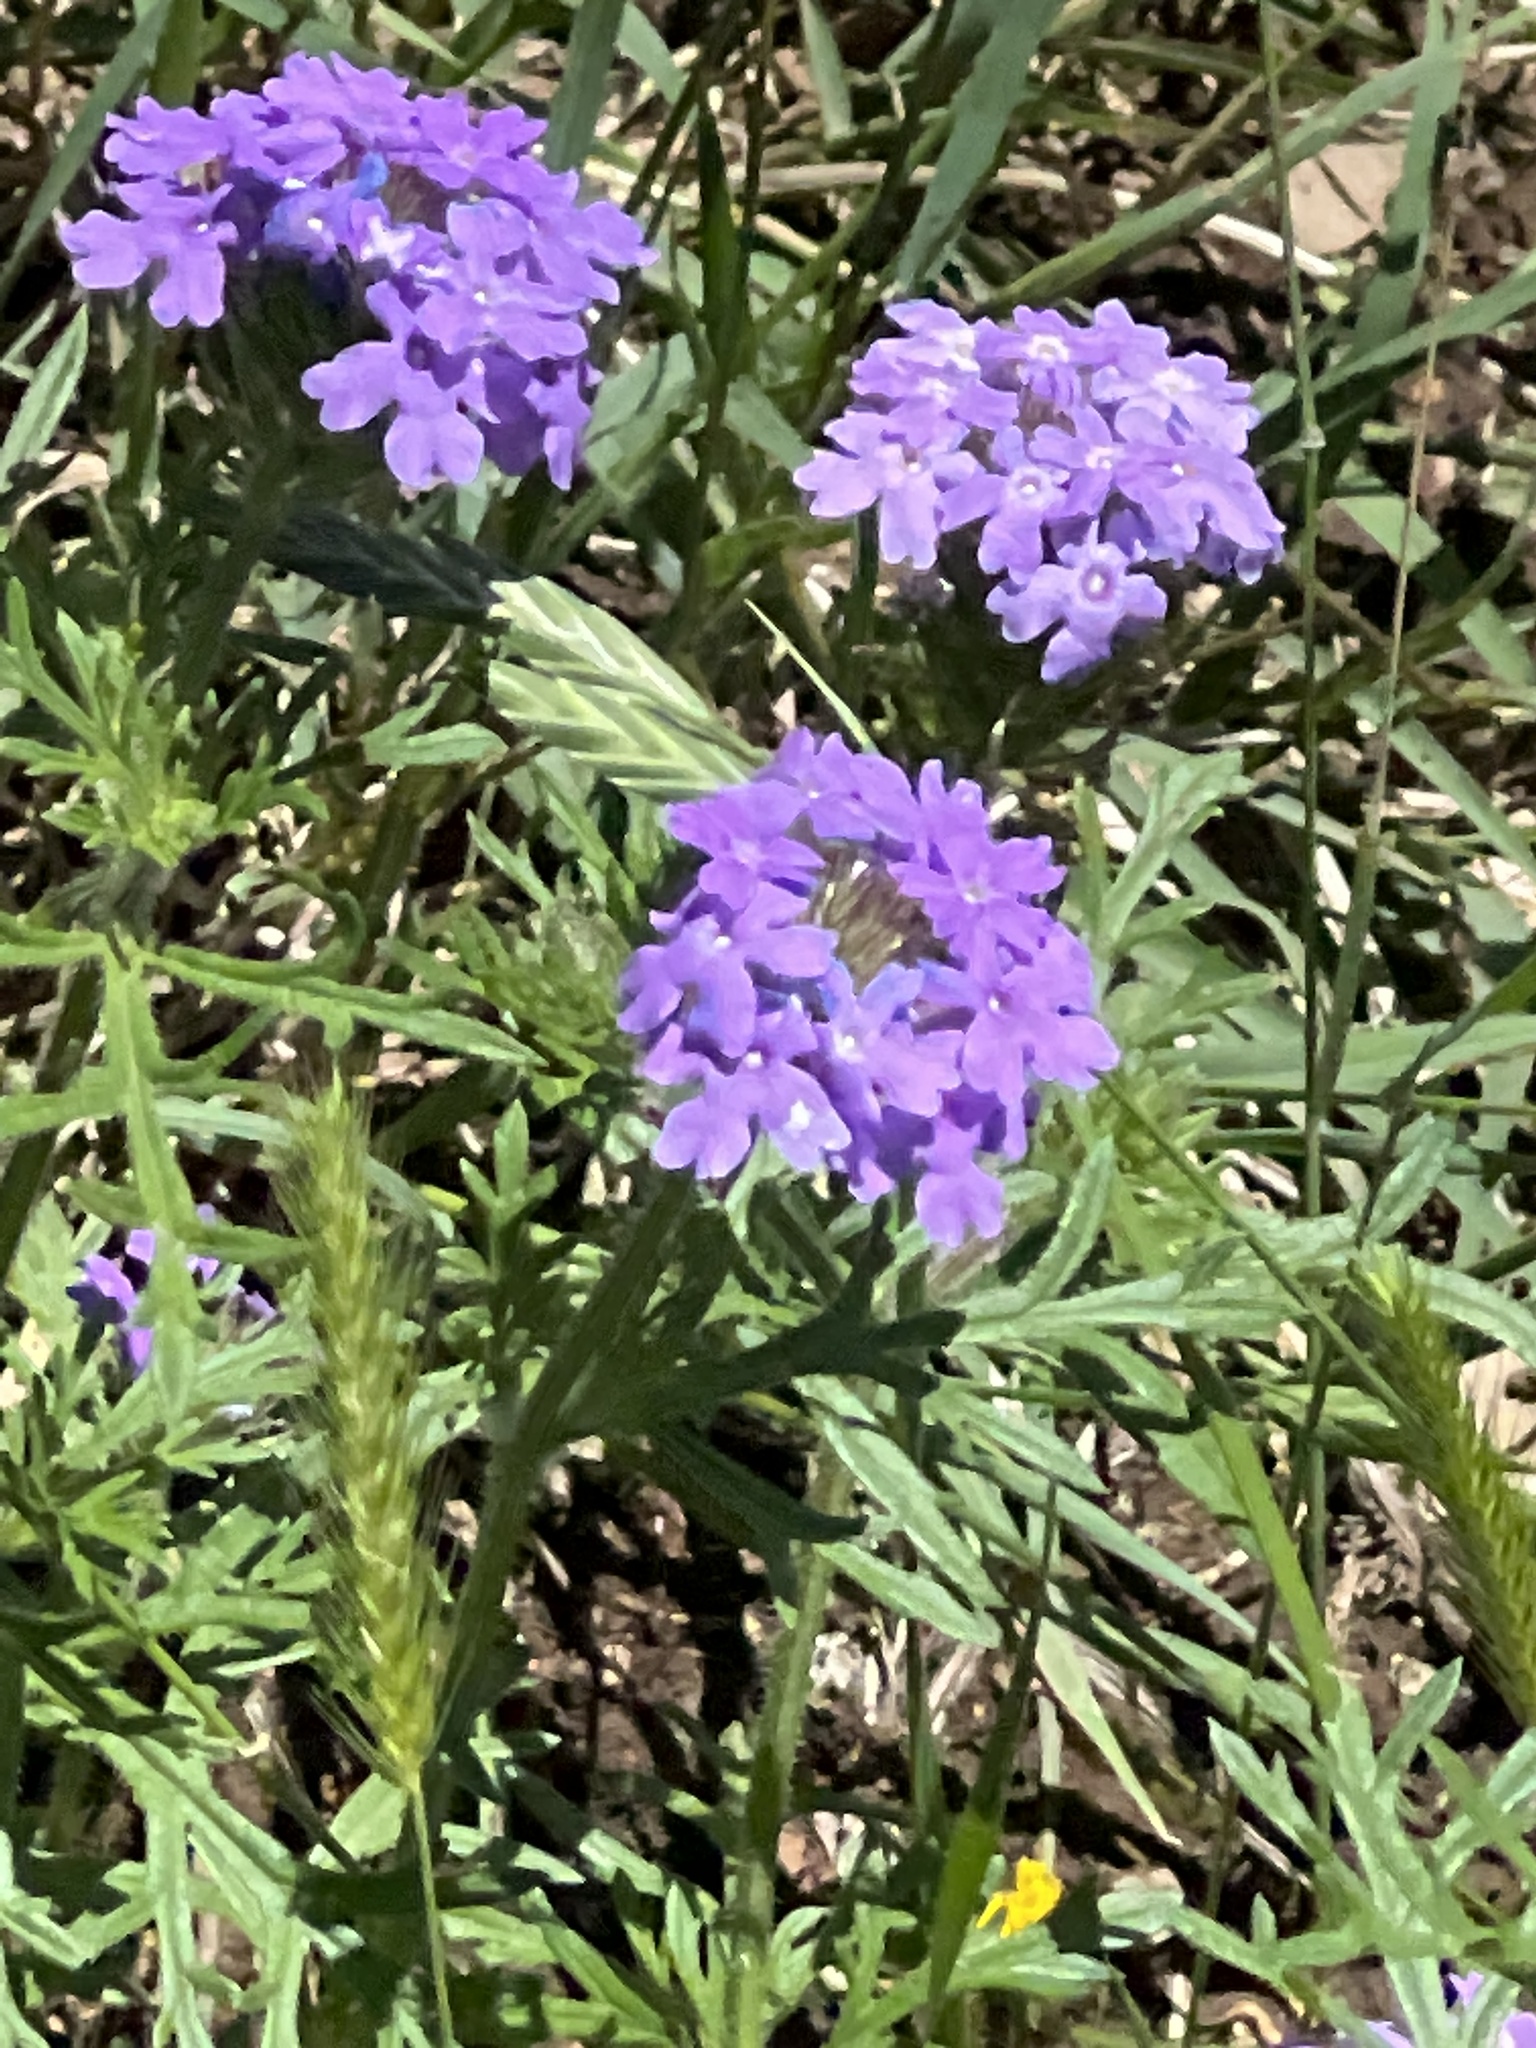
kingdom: Plantae
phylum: Tracheophyta
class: Magnoliopsida
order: Lamiales
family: Verbenaceae
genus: Verbena
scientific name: Verbena bipinnatifida
